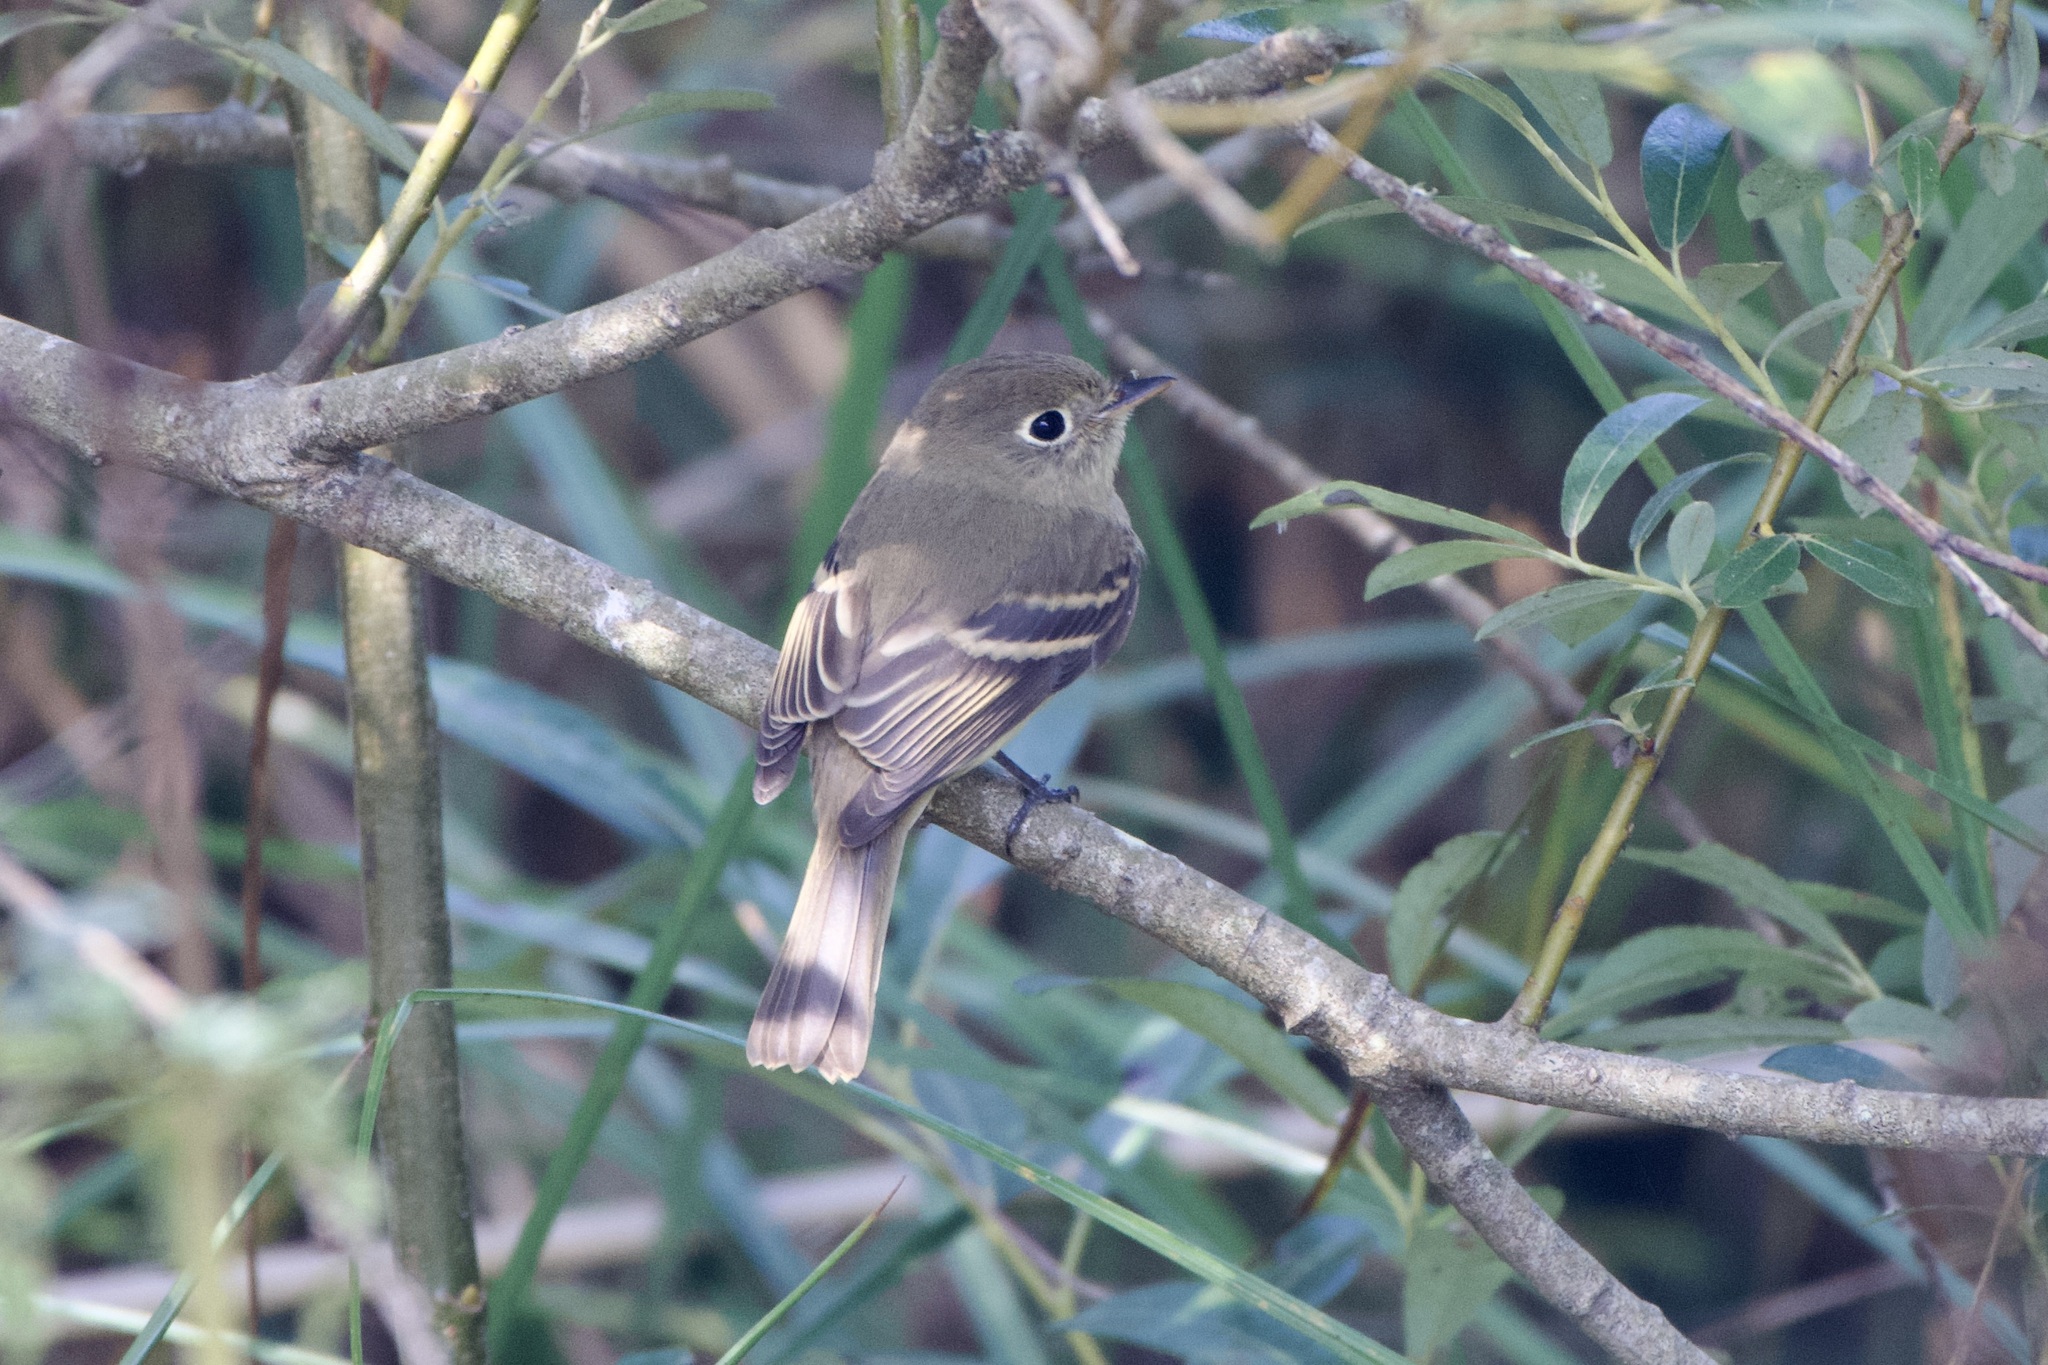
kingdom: Animalia
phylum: Chordata
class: Aves
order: Passeriformes
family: Tyrannidae
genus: Empidonax
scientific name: Empidonax difficilis
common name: Pacific-slope flycatcher
